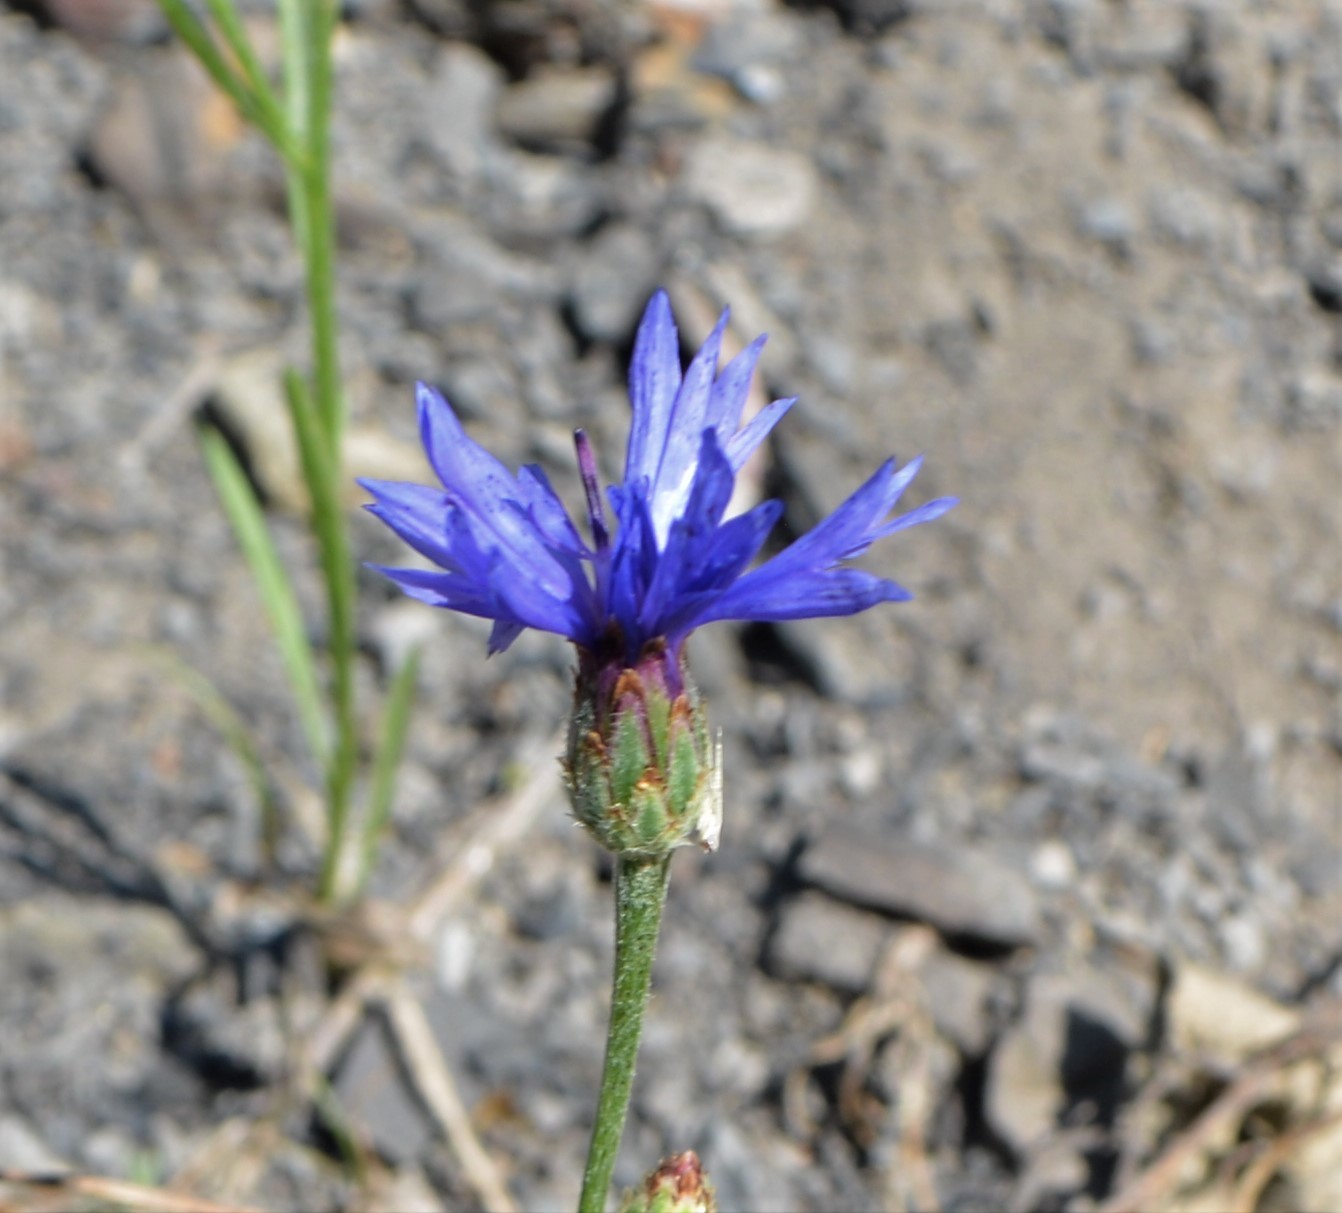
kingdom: Plantae
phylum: Tracheophyta
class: Magnoliopsida
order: Asterales
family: Asteraceae
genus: Centaurea
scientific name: Centaurea cyanus
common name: Cornflower
